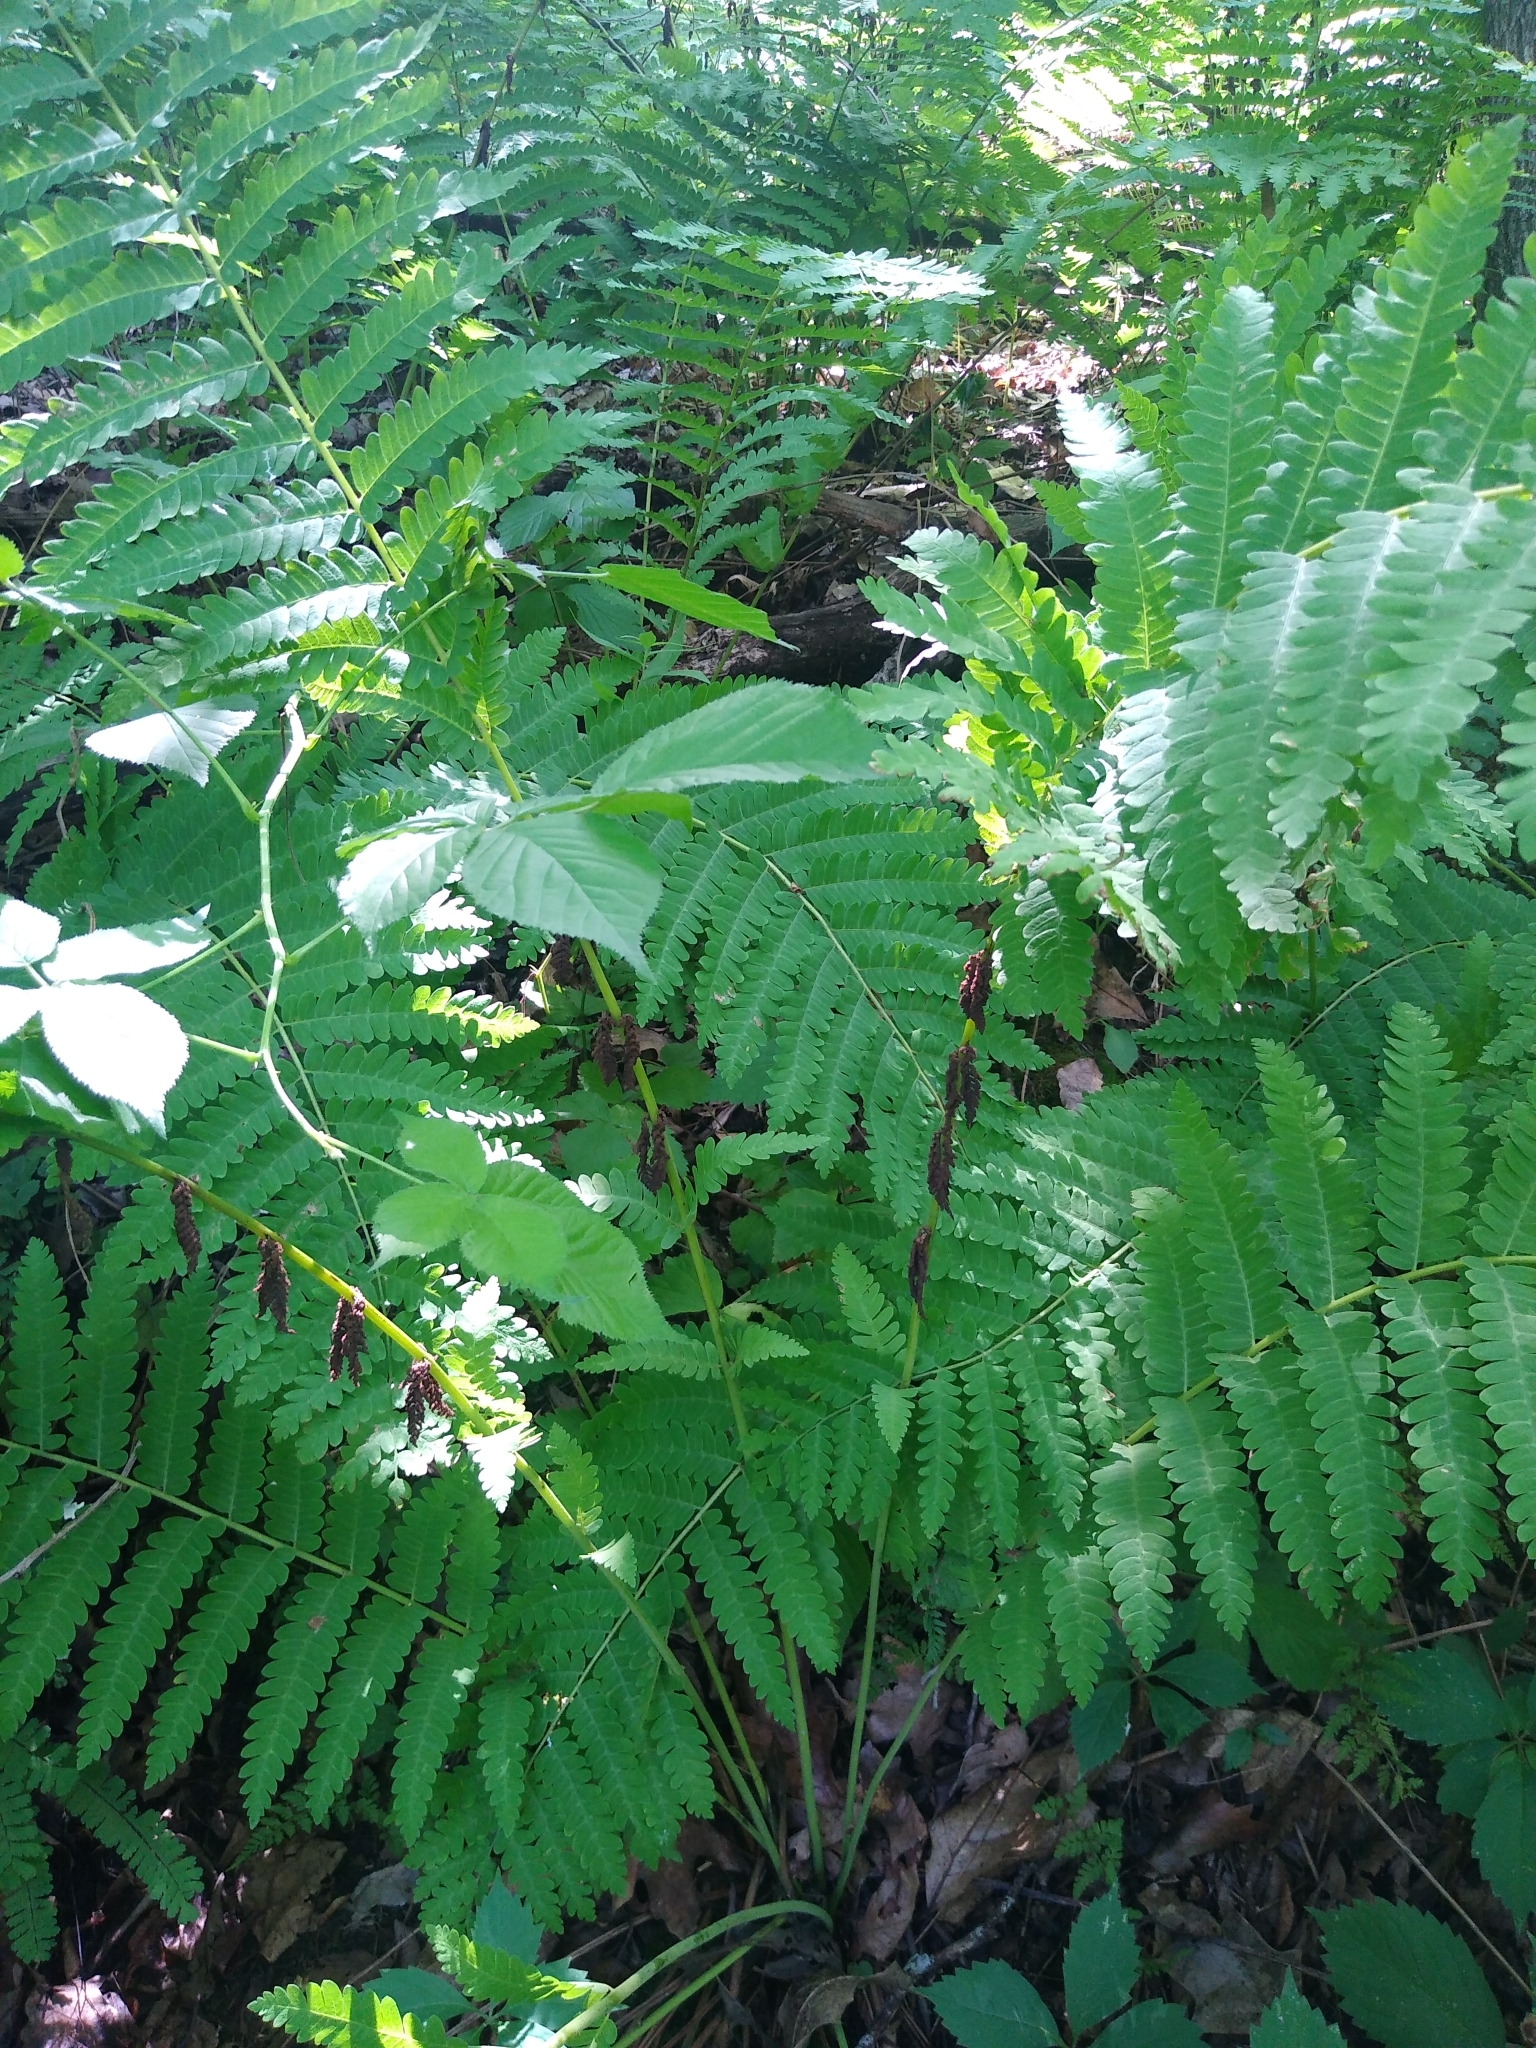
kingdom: Plantae
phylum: Tracheophyta
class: Polypodiopsida
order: Osmundales
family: Osmundaceae
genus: Claytosmunda
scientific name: Claytosmunda claytoniana
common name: Clayton's fern
